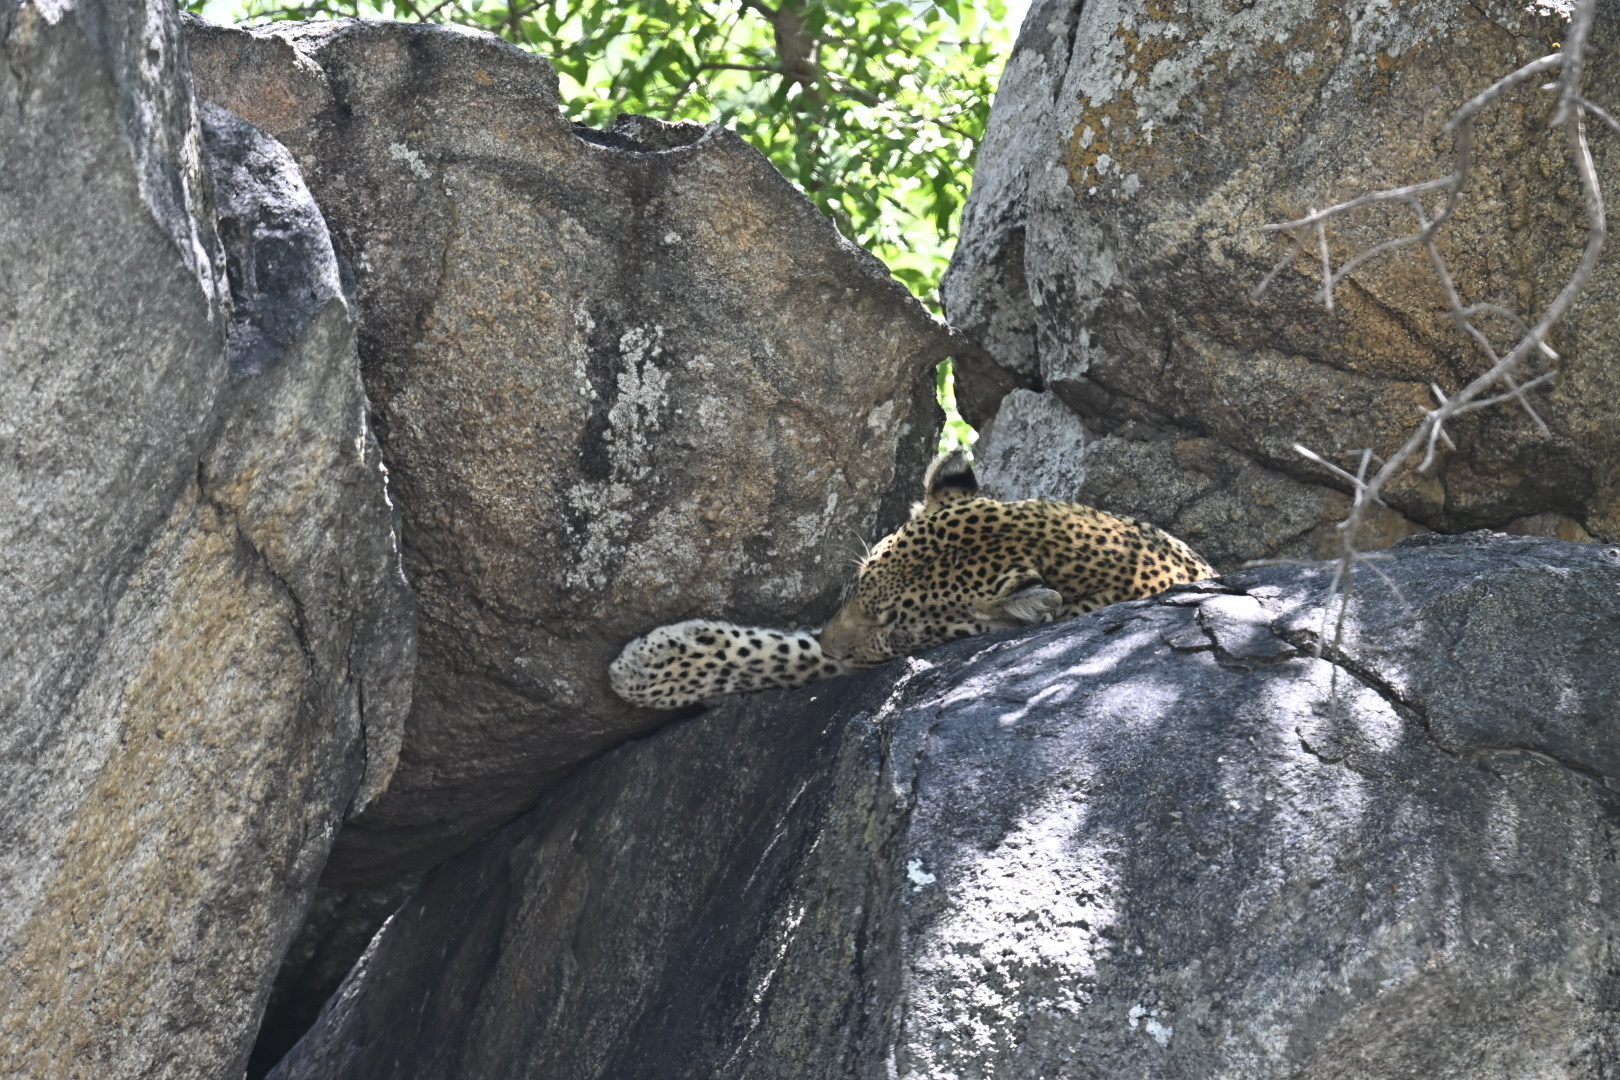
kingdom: Animalia
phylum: Chordata
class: Mammalia
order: Carnivora
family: Felidae
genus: Panthera
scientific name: Panthera pardus
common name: Leopard
